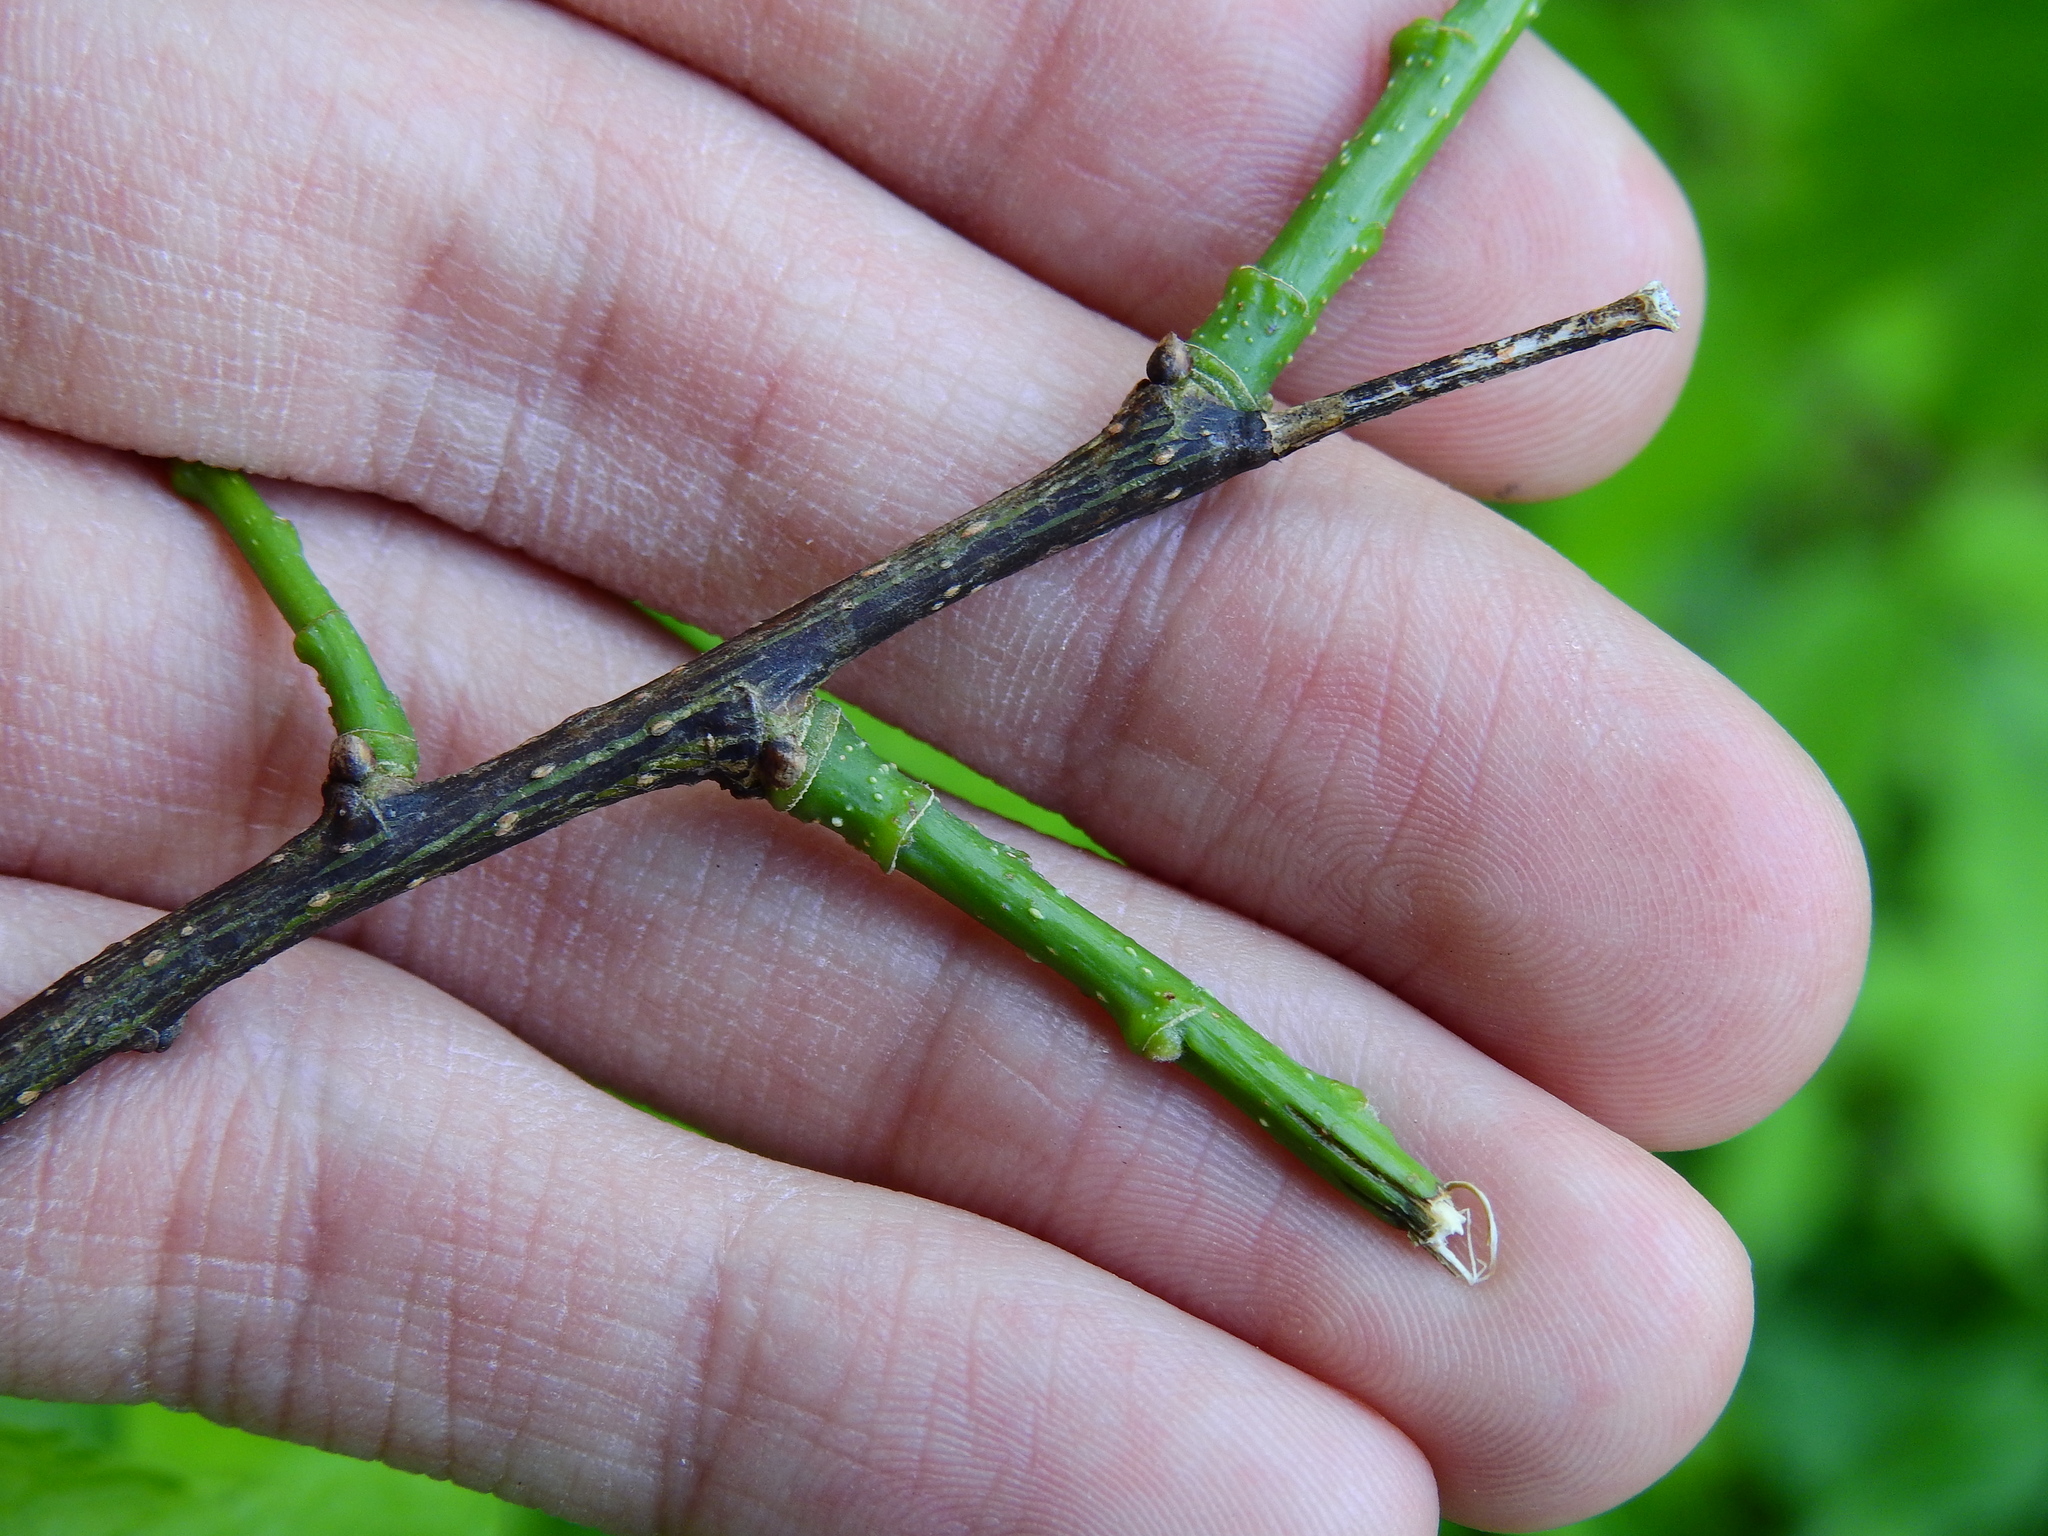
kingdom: Animalia
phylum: Arthropoda
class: Insecta
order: Diptera
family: Agromyzidae
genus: Agromyza
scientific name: Agromyza deserta
